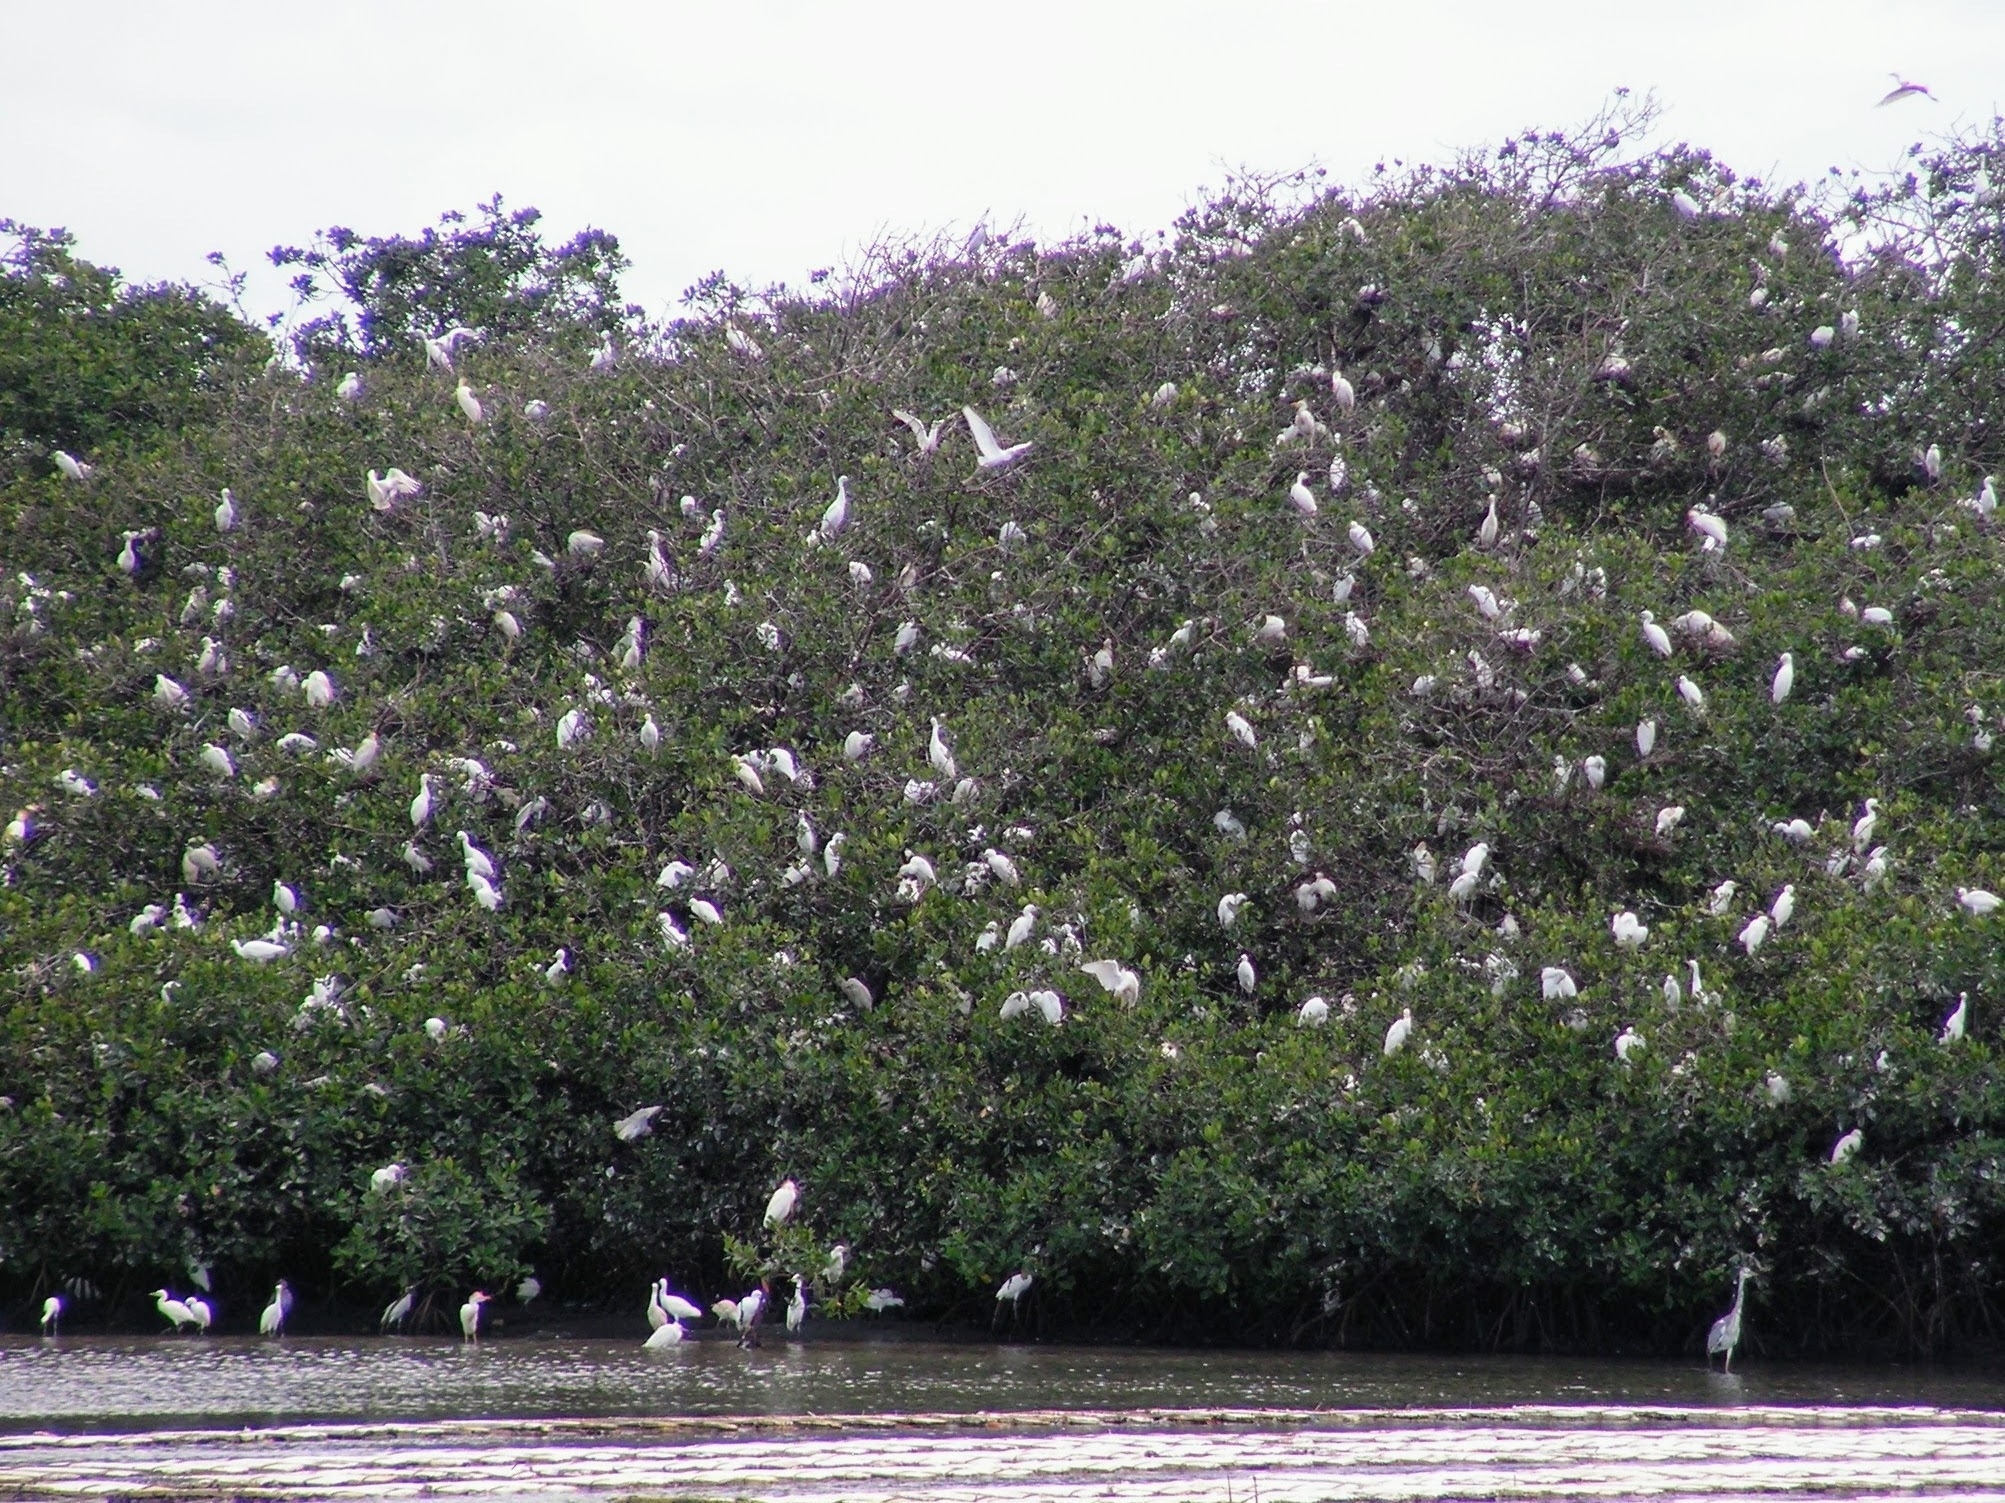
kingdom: Animalia
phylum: Chordata
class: Aves
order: Pelecaniformes
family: Ardeidae
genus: Bubulcus
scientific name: Bubulcus ibis
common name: Cattle egret
